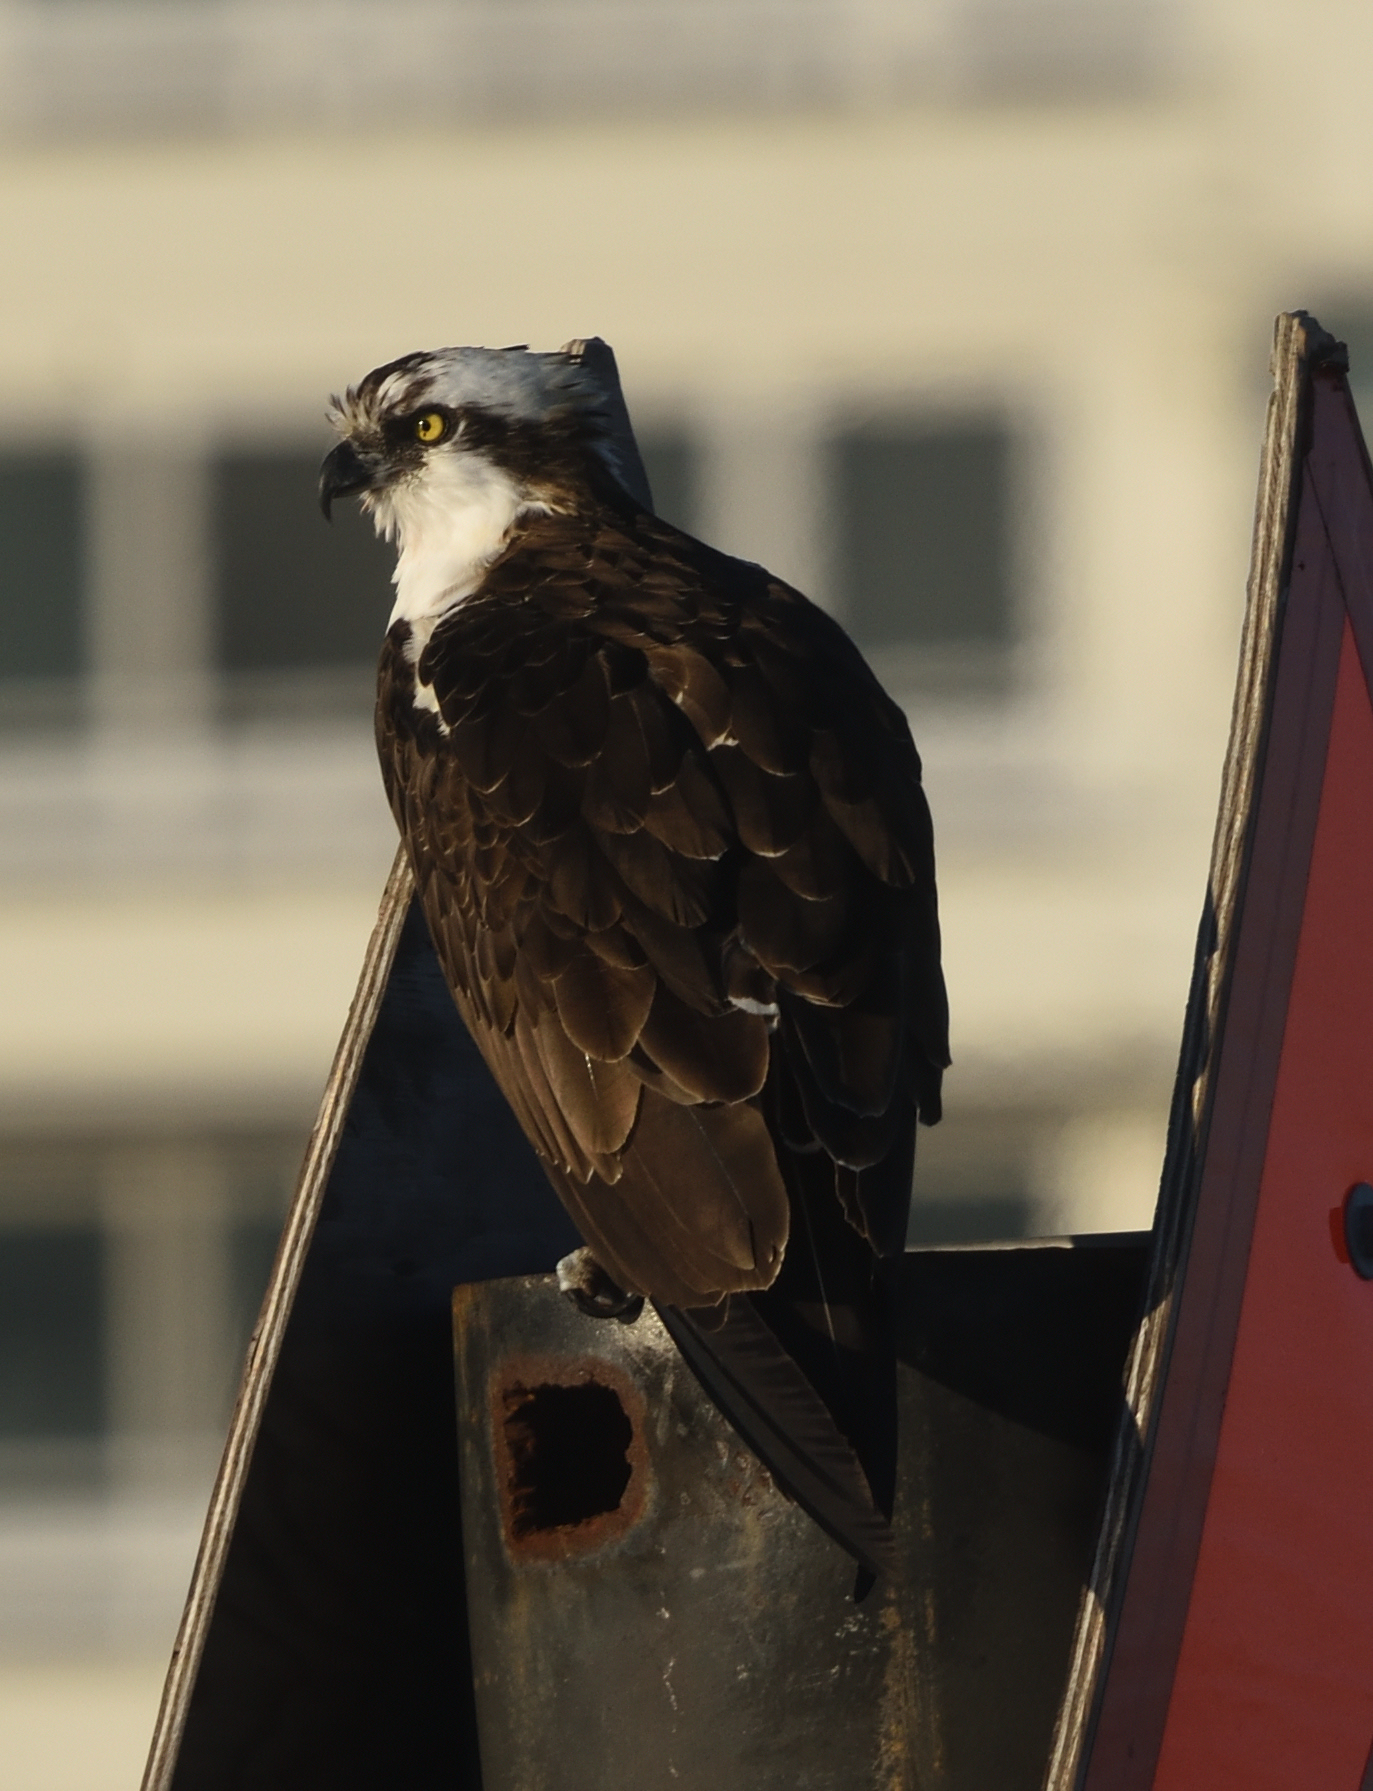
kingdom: Animalia
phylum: Chordata
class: Aves
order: Accipitriformes
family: Pandionidae
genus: Pandion
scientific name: Pandion haliaetus
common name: Osprey
